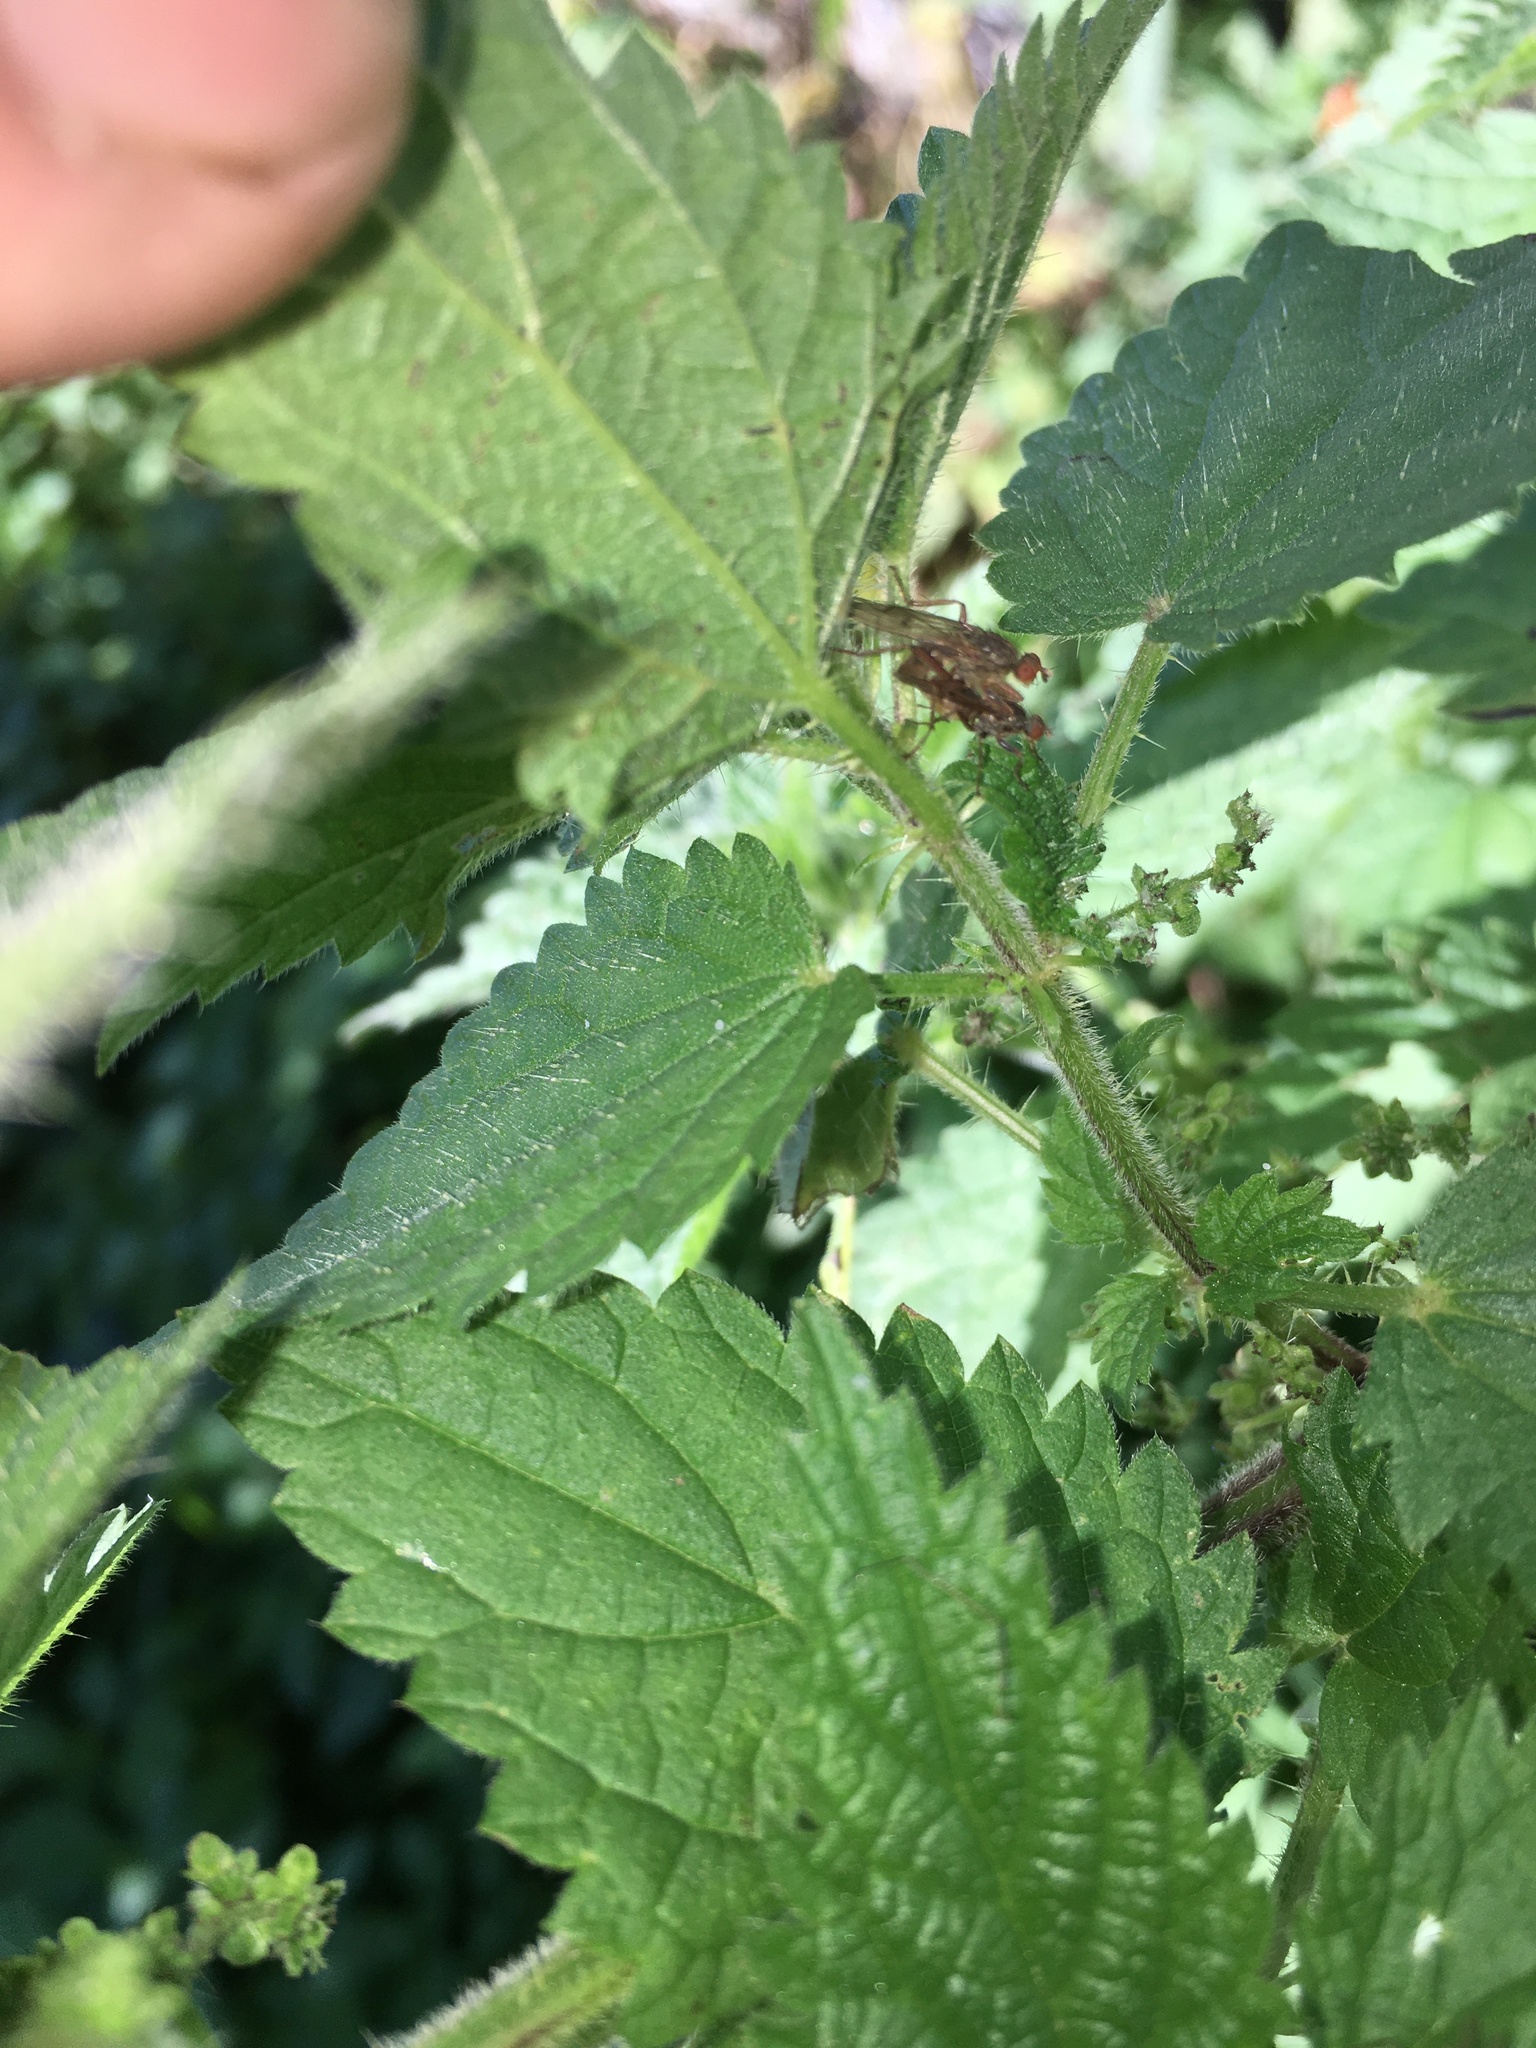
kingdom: Plantae
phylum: Tracheophyta
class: Magnoliopsida
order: Rosales
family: Urticaceae
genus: Urtica
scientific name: Urtica dioica
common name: Common nettle
